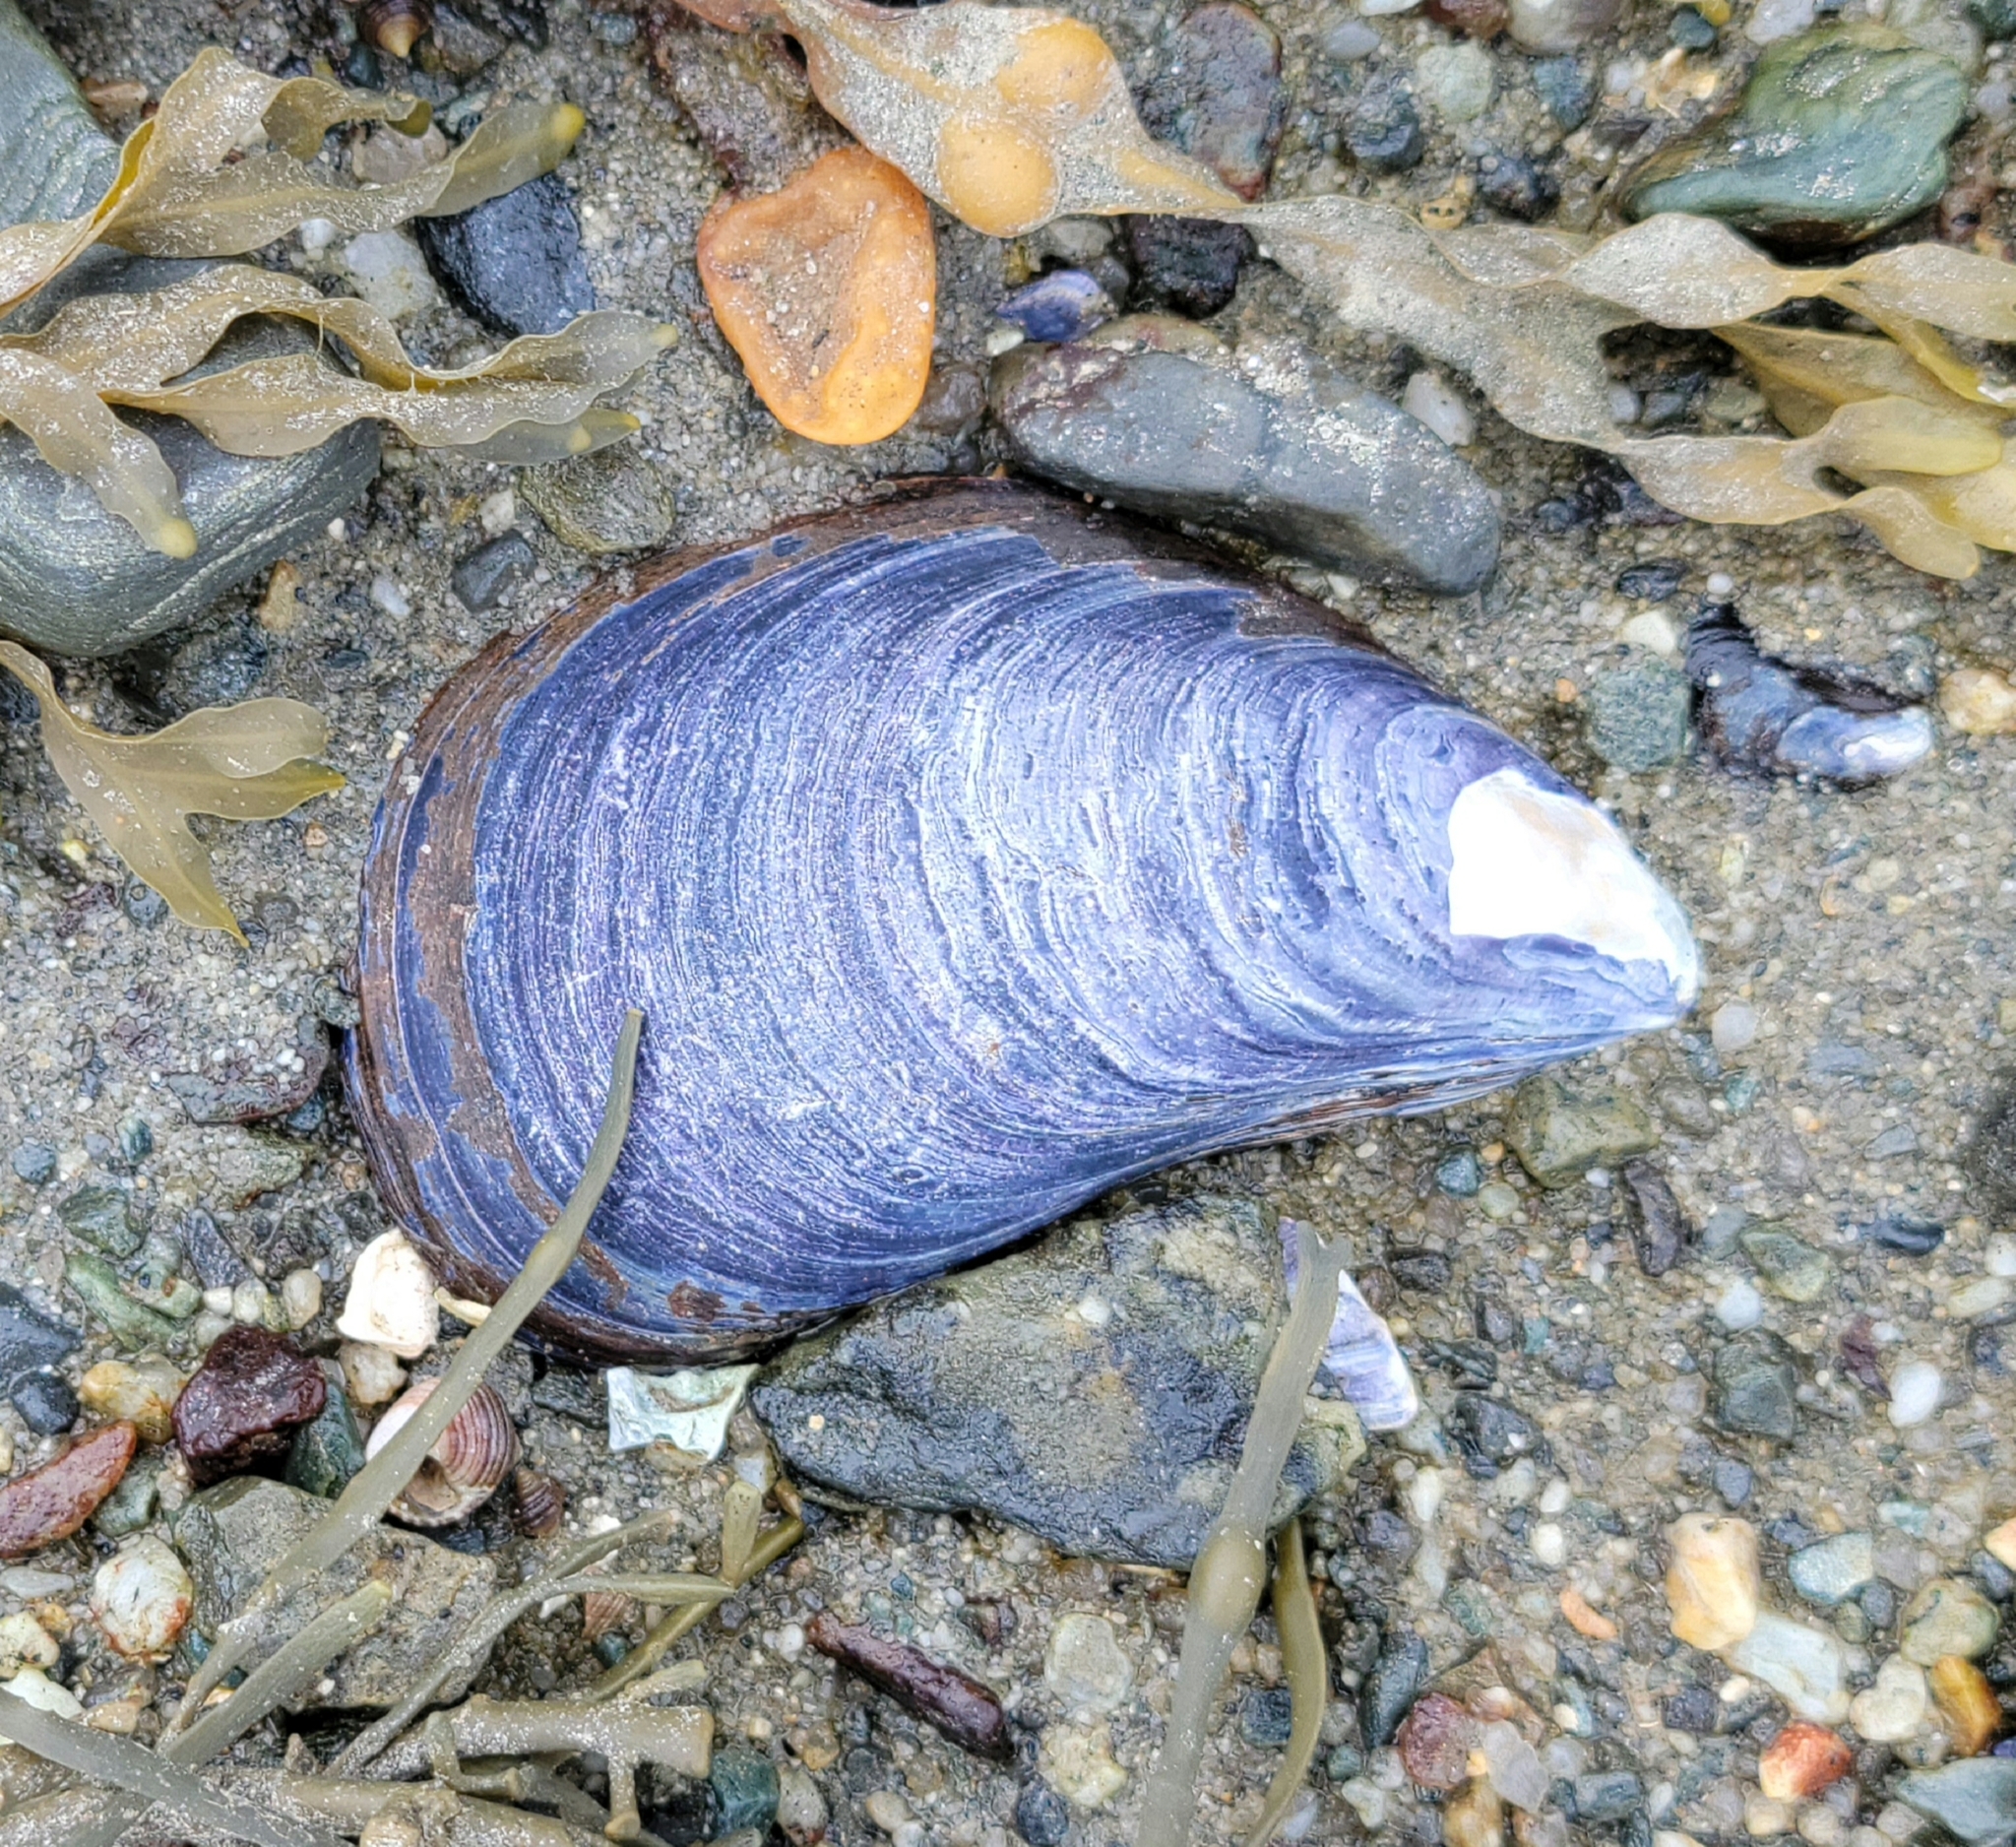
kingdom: Animalia
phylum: Mollusca
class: Bivalvia
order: Mytilida
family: Mytilidae
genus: Mytilus
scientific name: Mytilus
